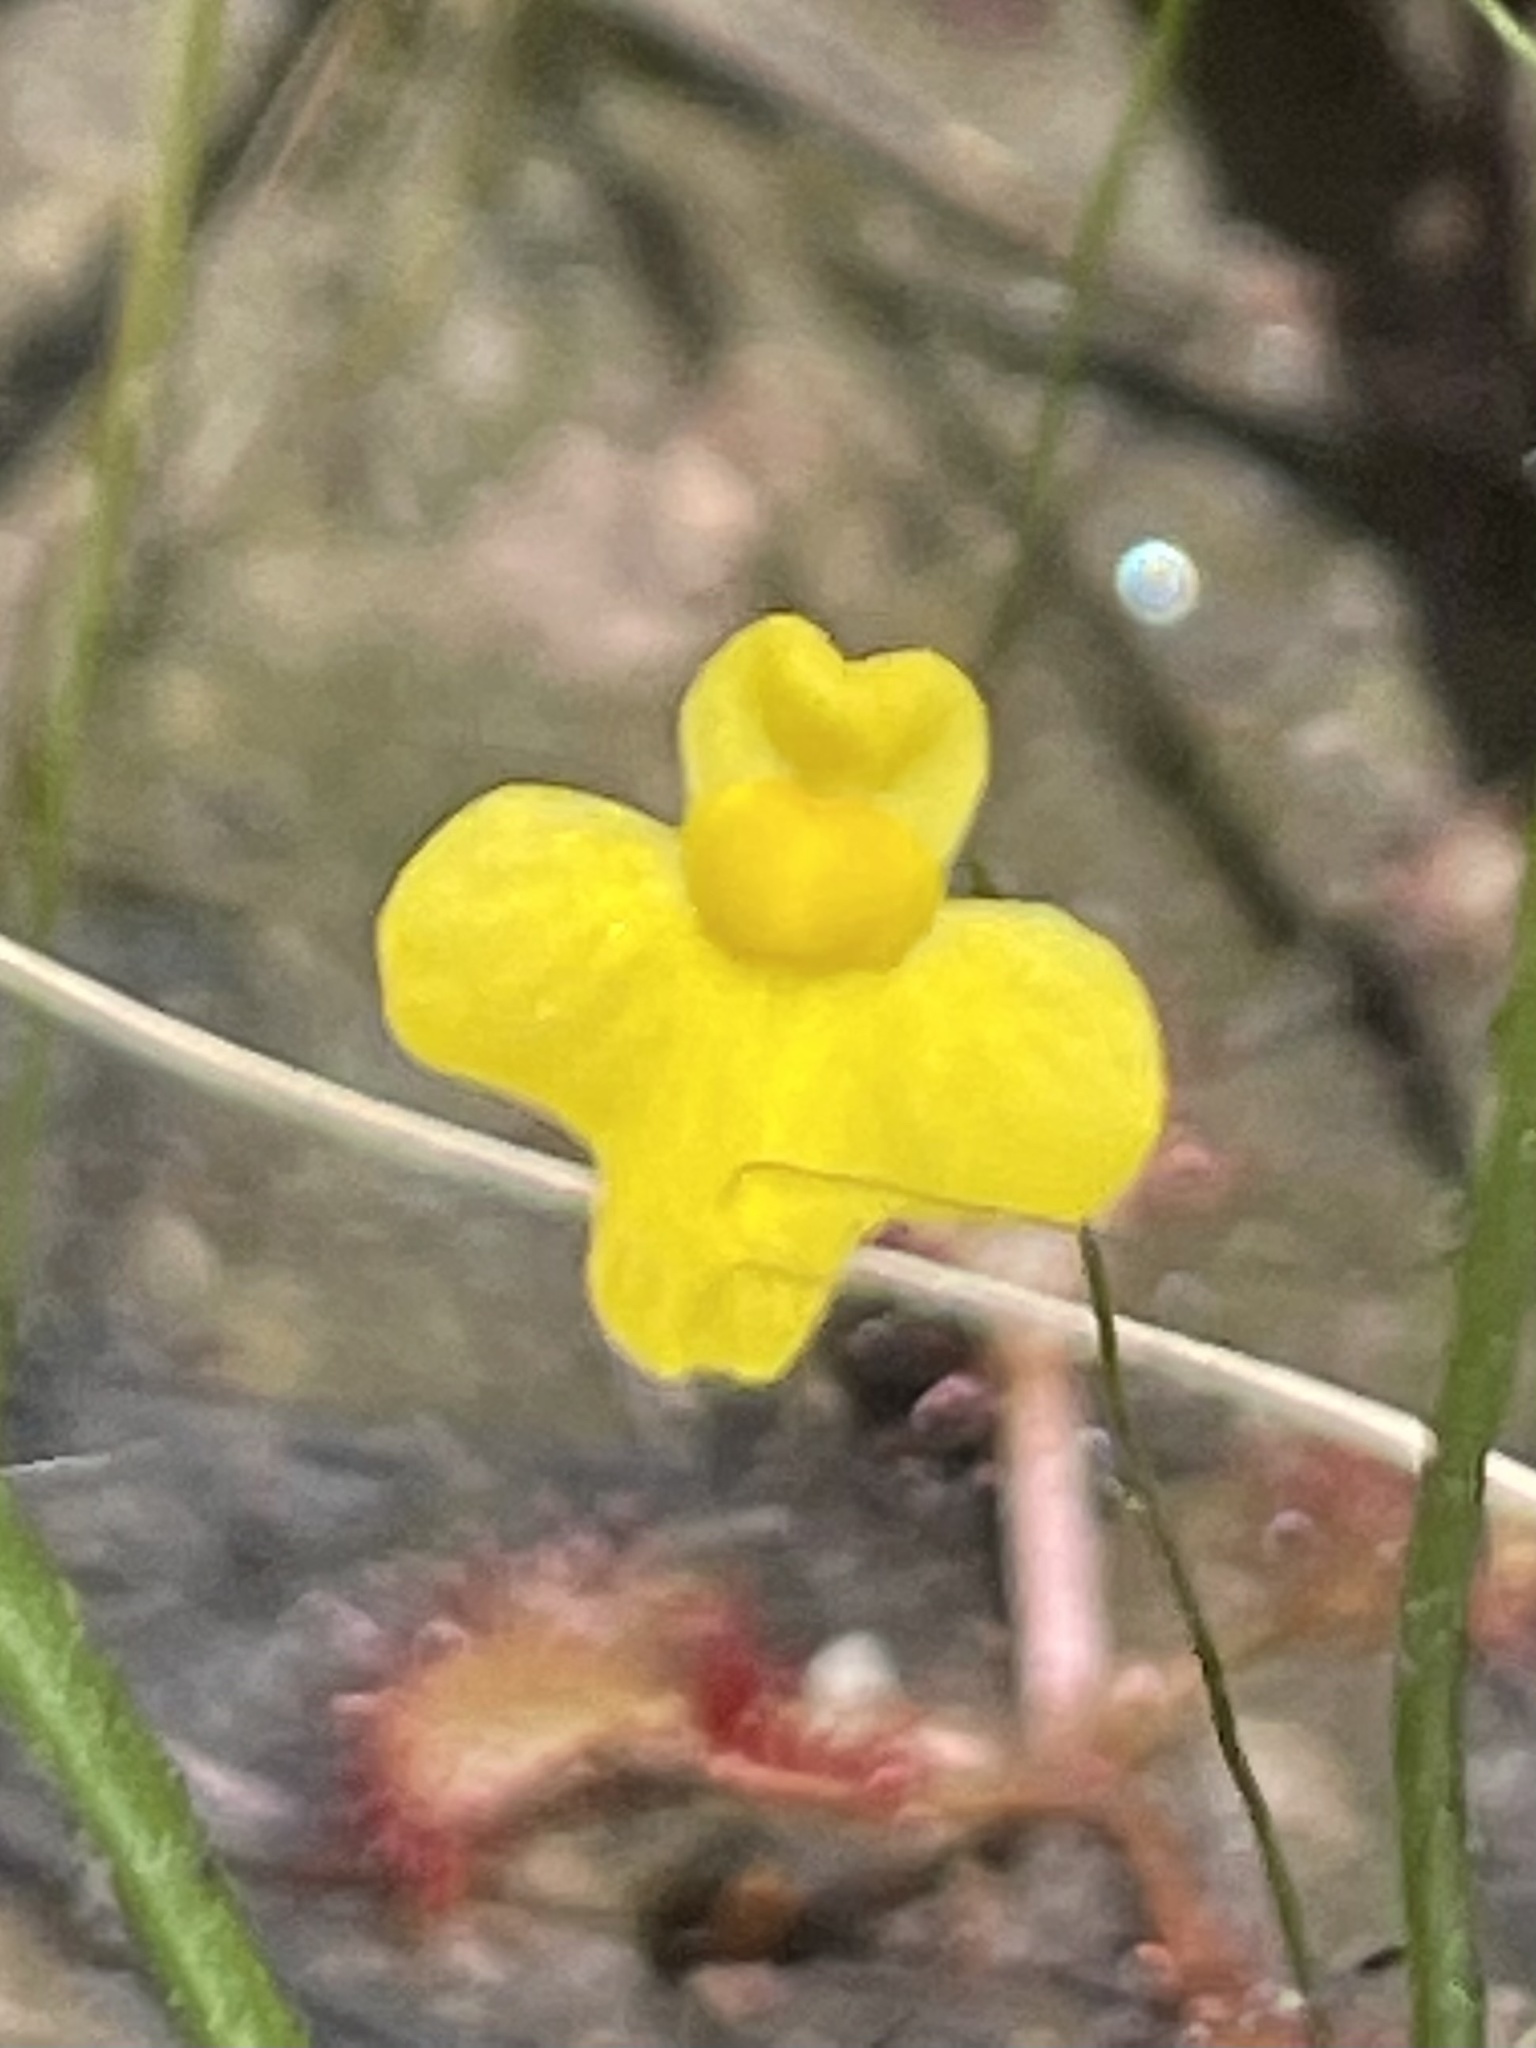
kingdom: Plantae
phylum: Tracheophyta
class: Magnoliopsida
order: Lamiales
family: Lentibulariaceae
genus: Utricularia
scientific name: Utricularia subulata
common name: Tiny bladderwort
